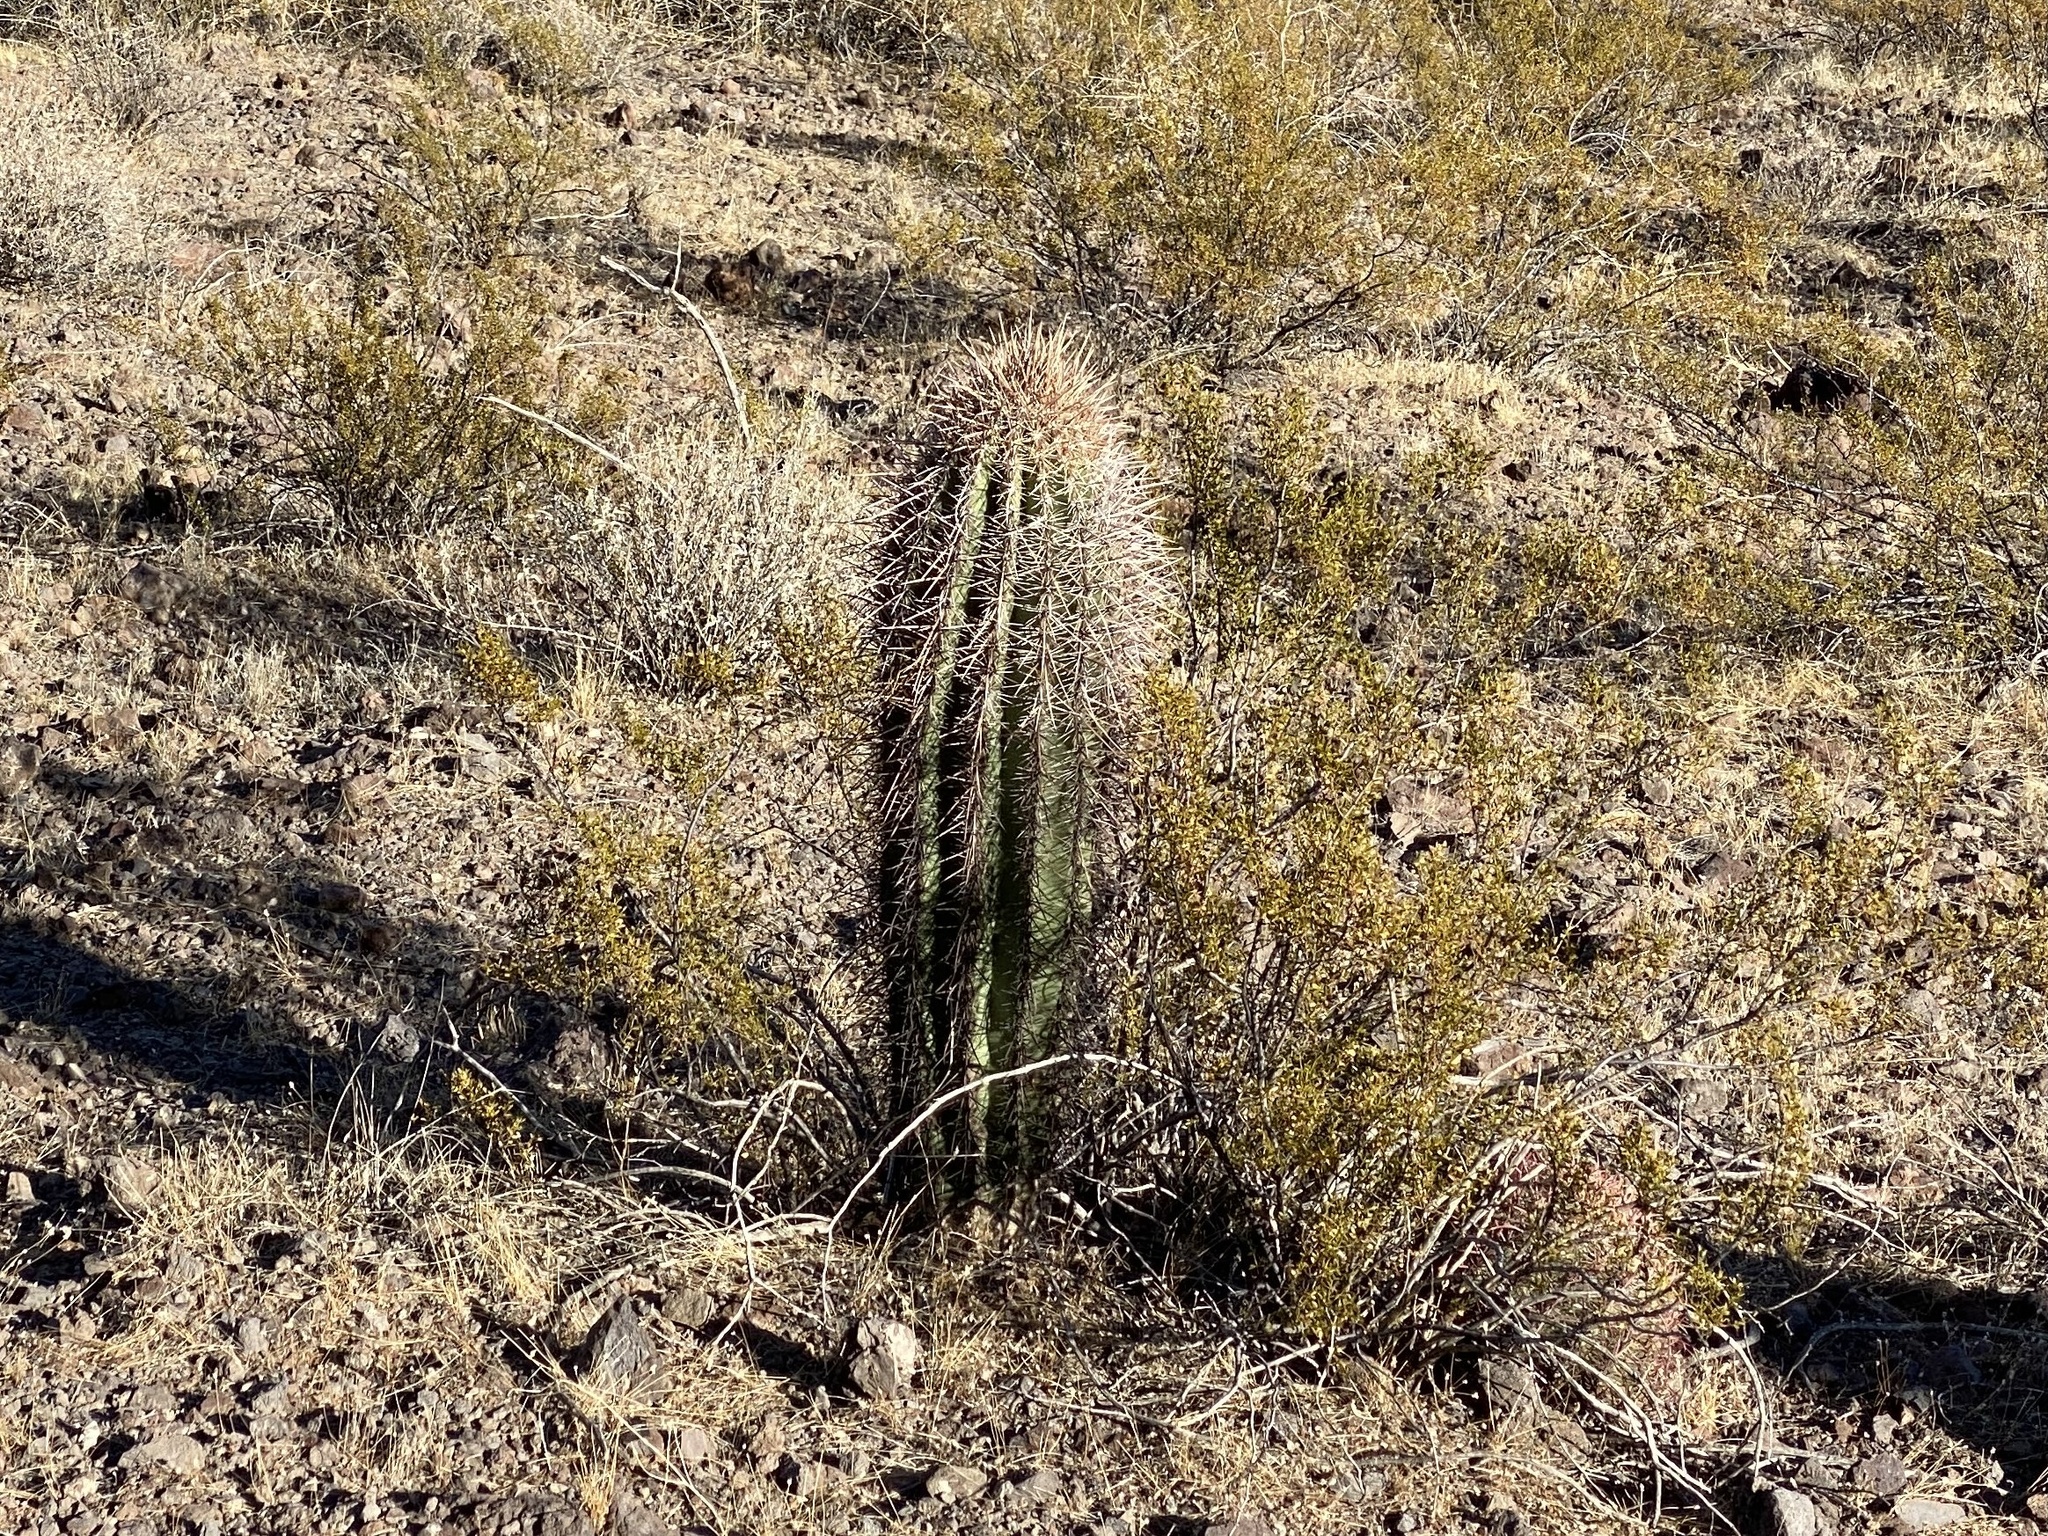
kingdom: Plantae
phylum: Tracheophyta
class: Magnoliopsida
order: Caryophyllales
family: Cactaceae
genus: Carnegiea
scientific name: Carnegiea gigantea
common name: Saguaro
